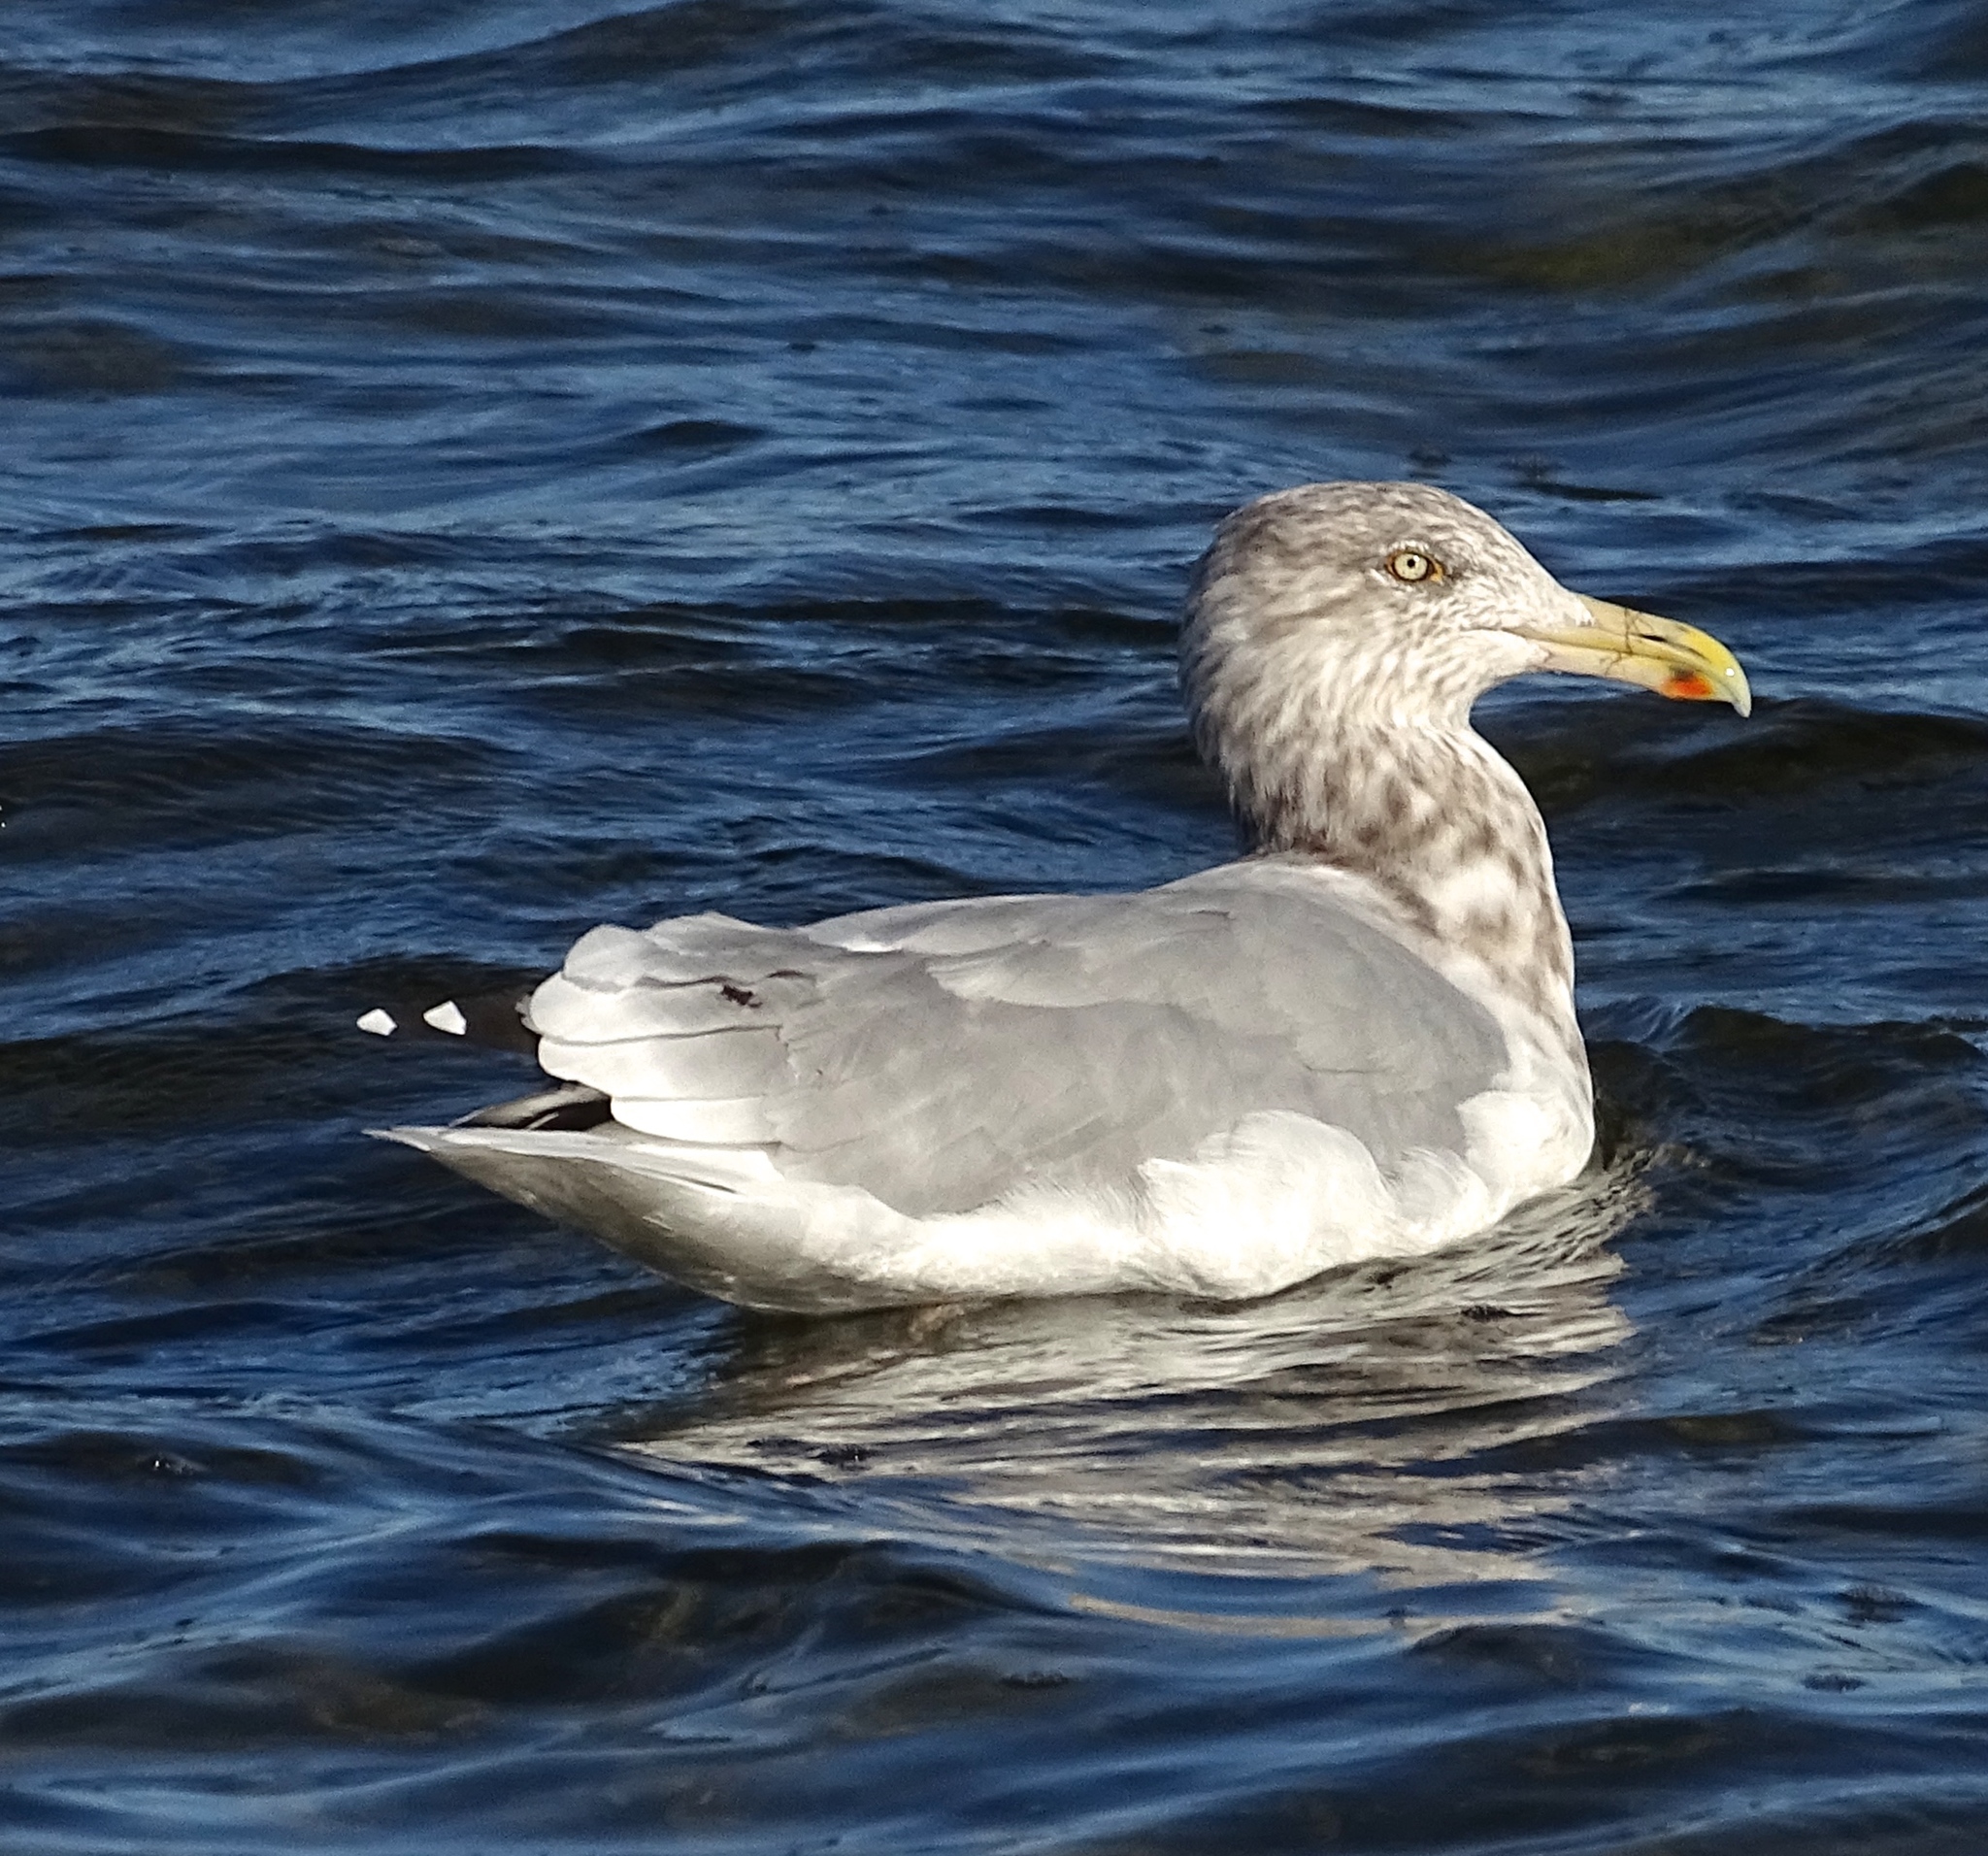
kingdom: Animalia
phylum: Chordata
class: Aves
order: Charadriiformes
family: Laridae
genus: Larus
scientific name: Larus argentatus
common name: Herring gull
